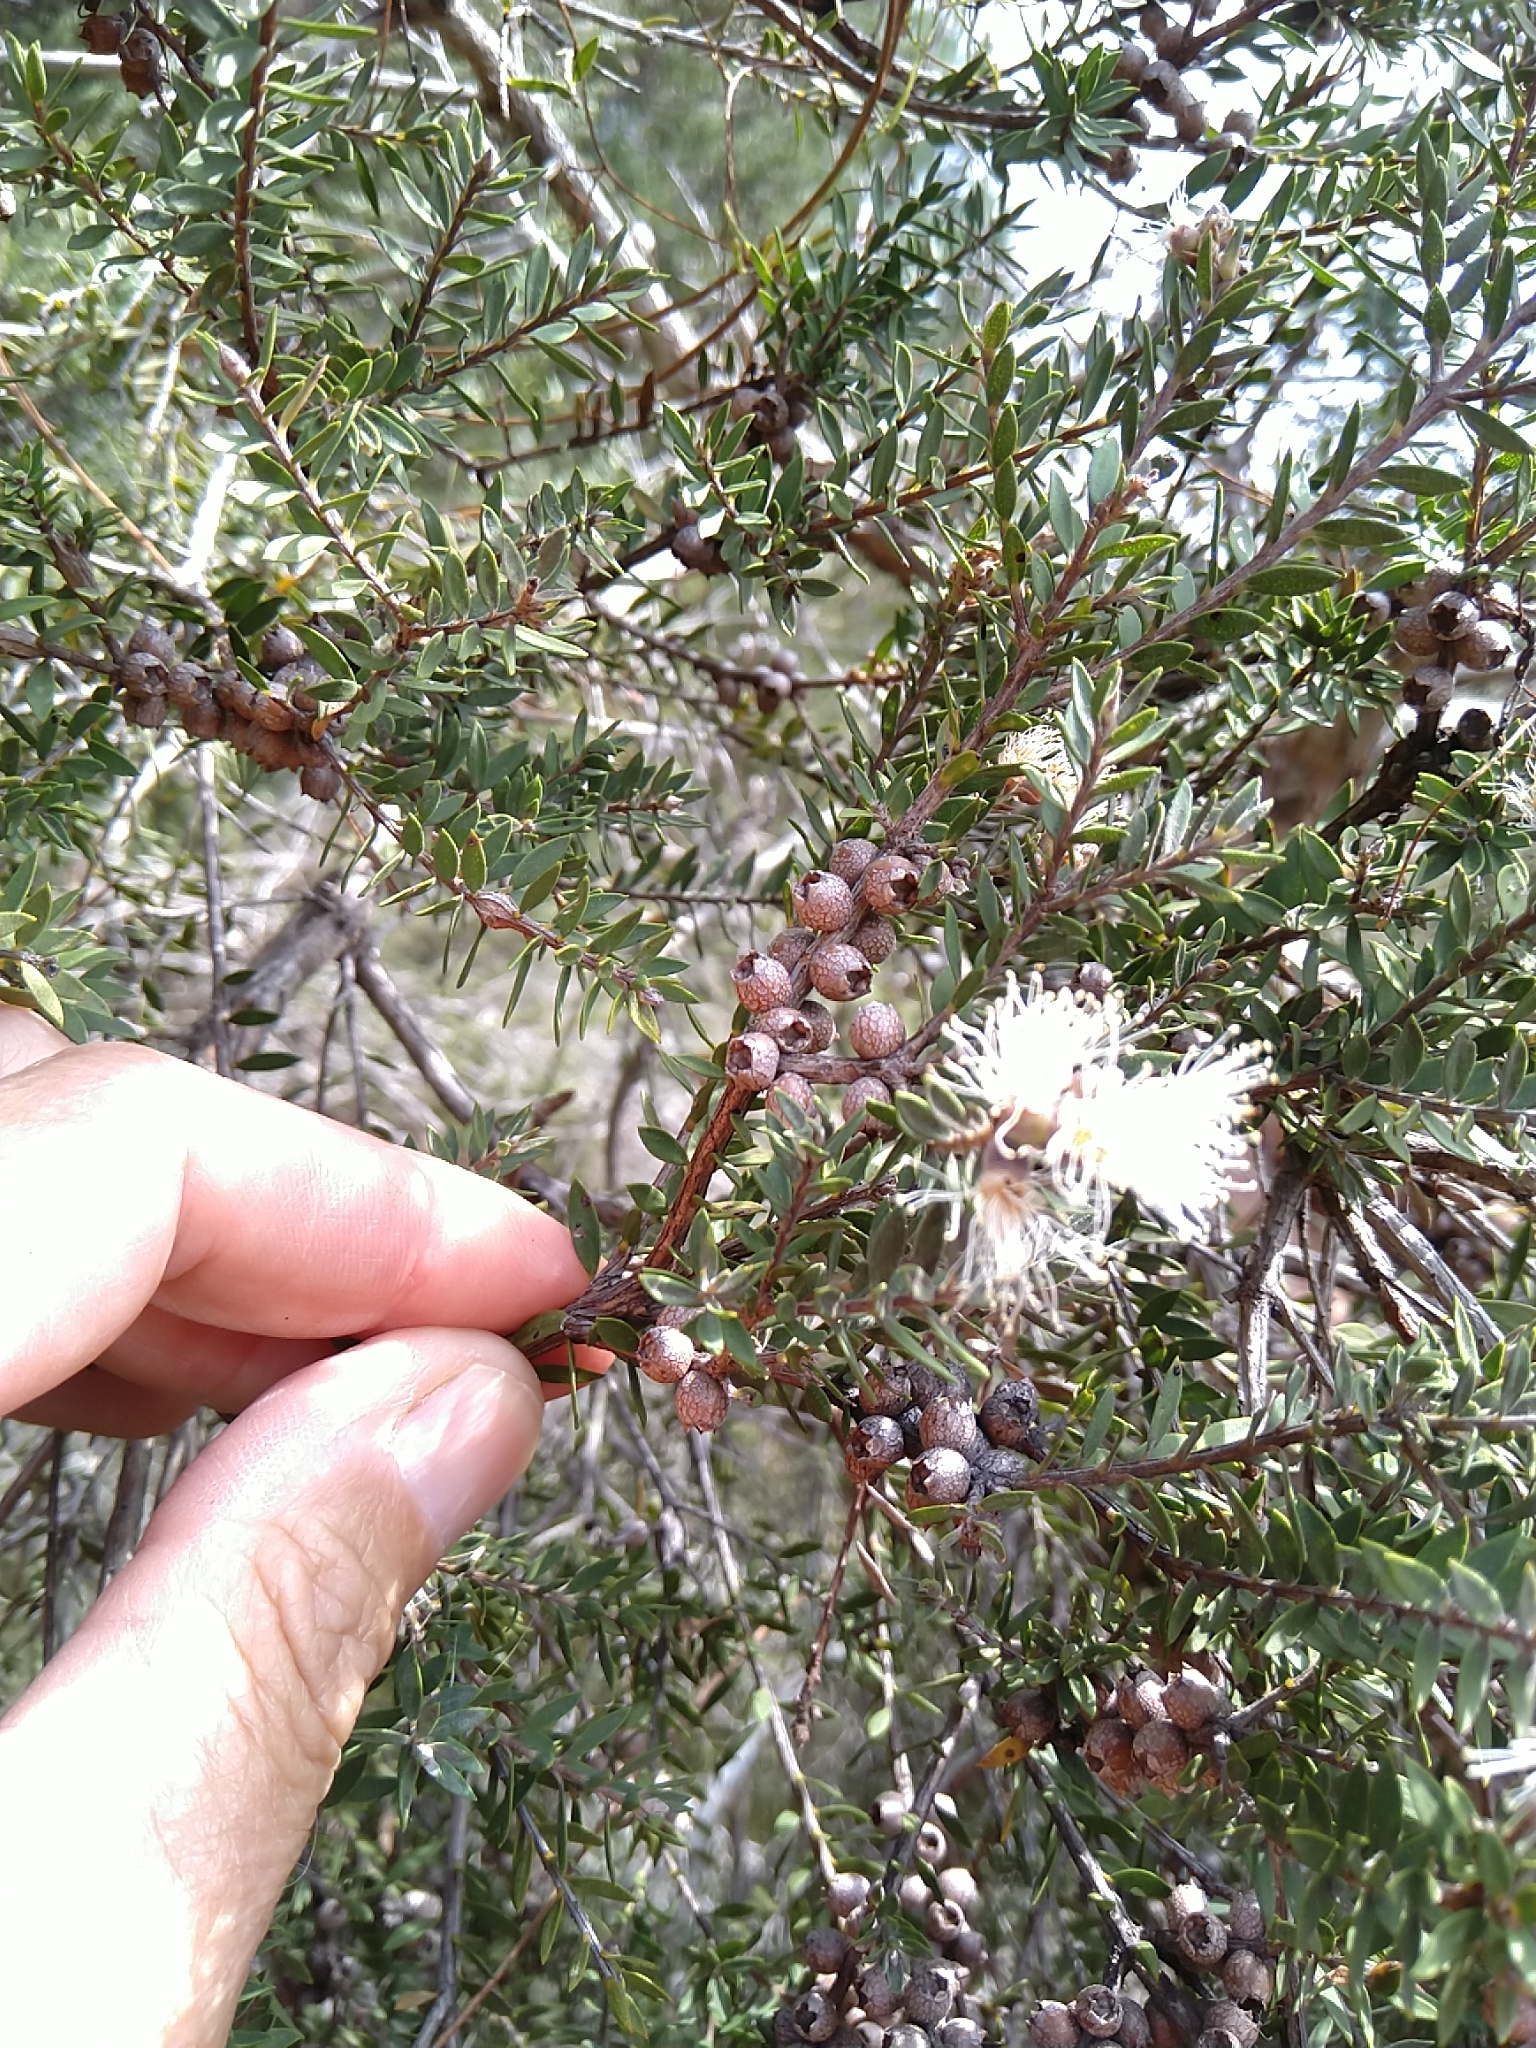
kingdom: Plantae
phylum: Tracheophyta
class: Magnoliopsida
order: Myrtales
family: Myrtaceae
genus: Melaleuca
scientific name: Melaleuca cheelii
